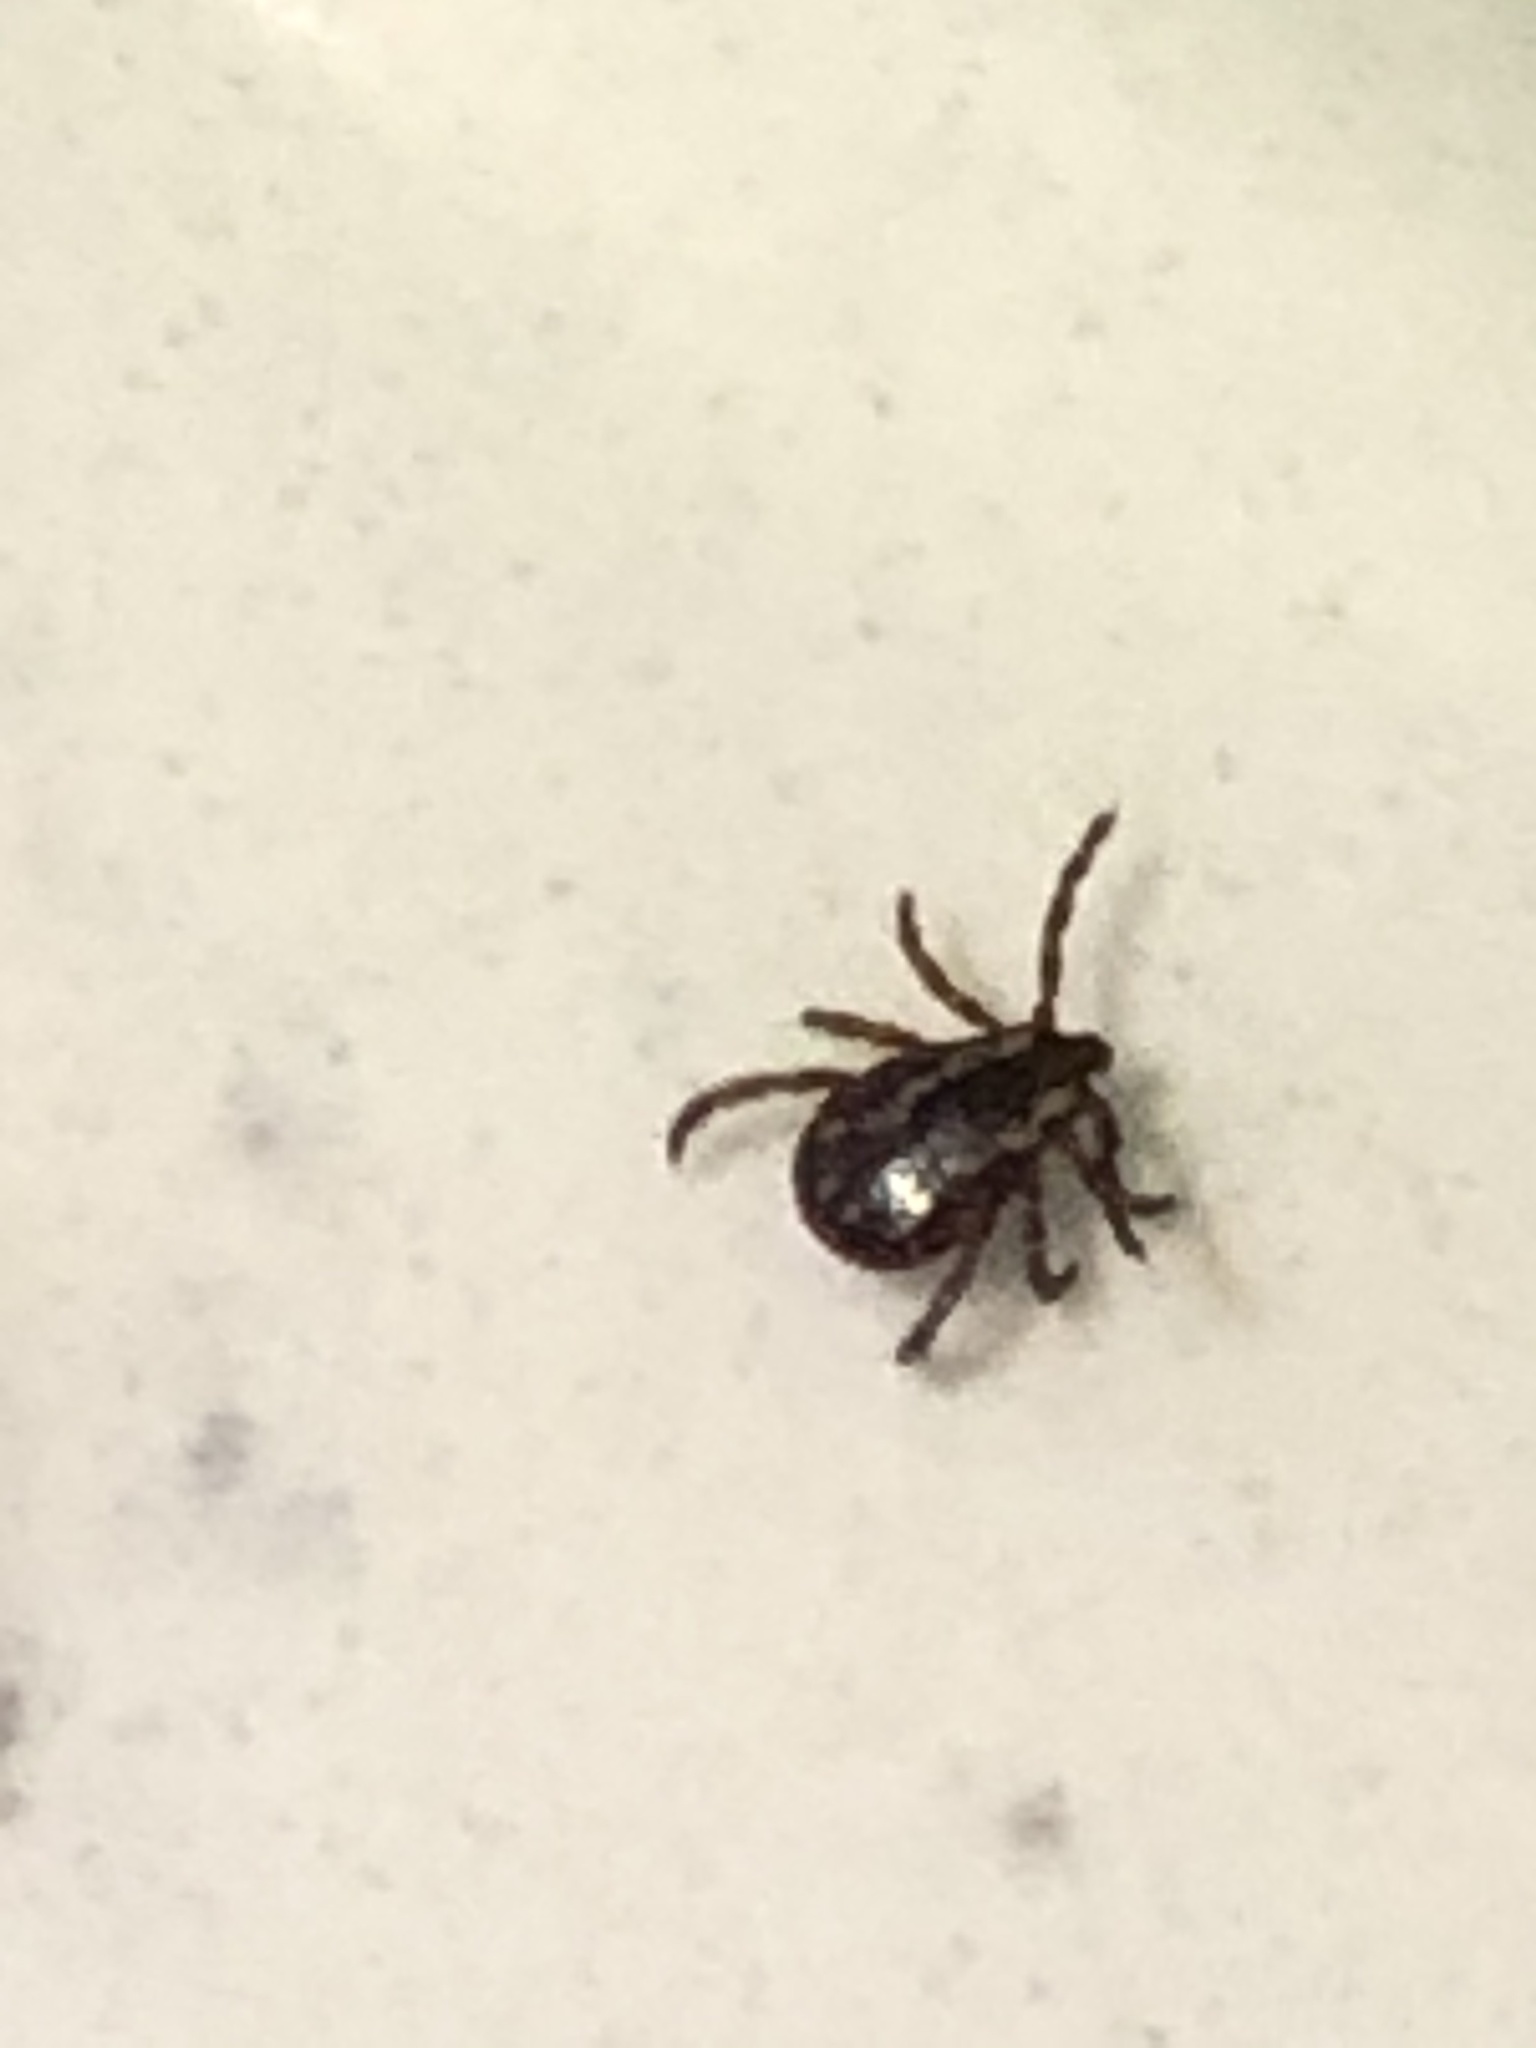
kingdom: Animalia
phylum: Arthropoda
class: Arachnida
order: Ixodida
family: Ixodidae
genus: Dermacentor
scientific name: Dermacentor variabilis
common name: American dog tick
